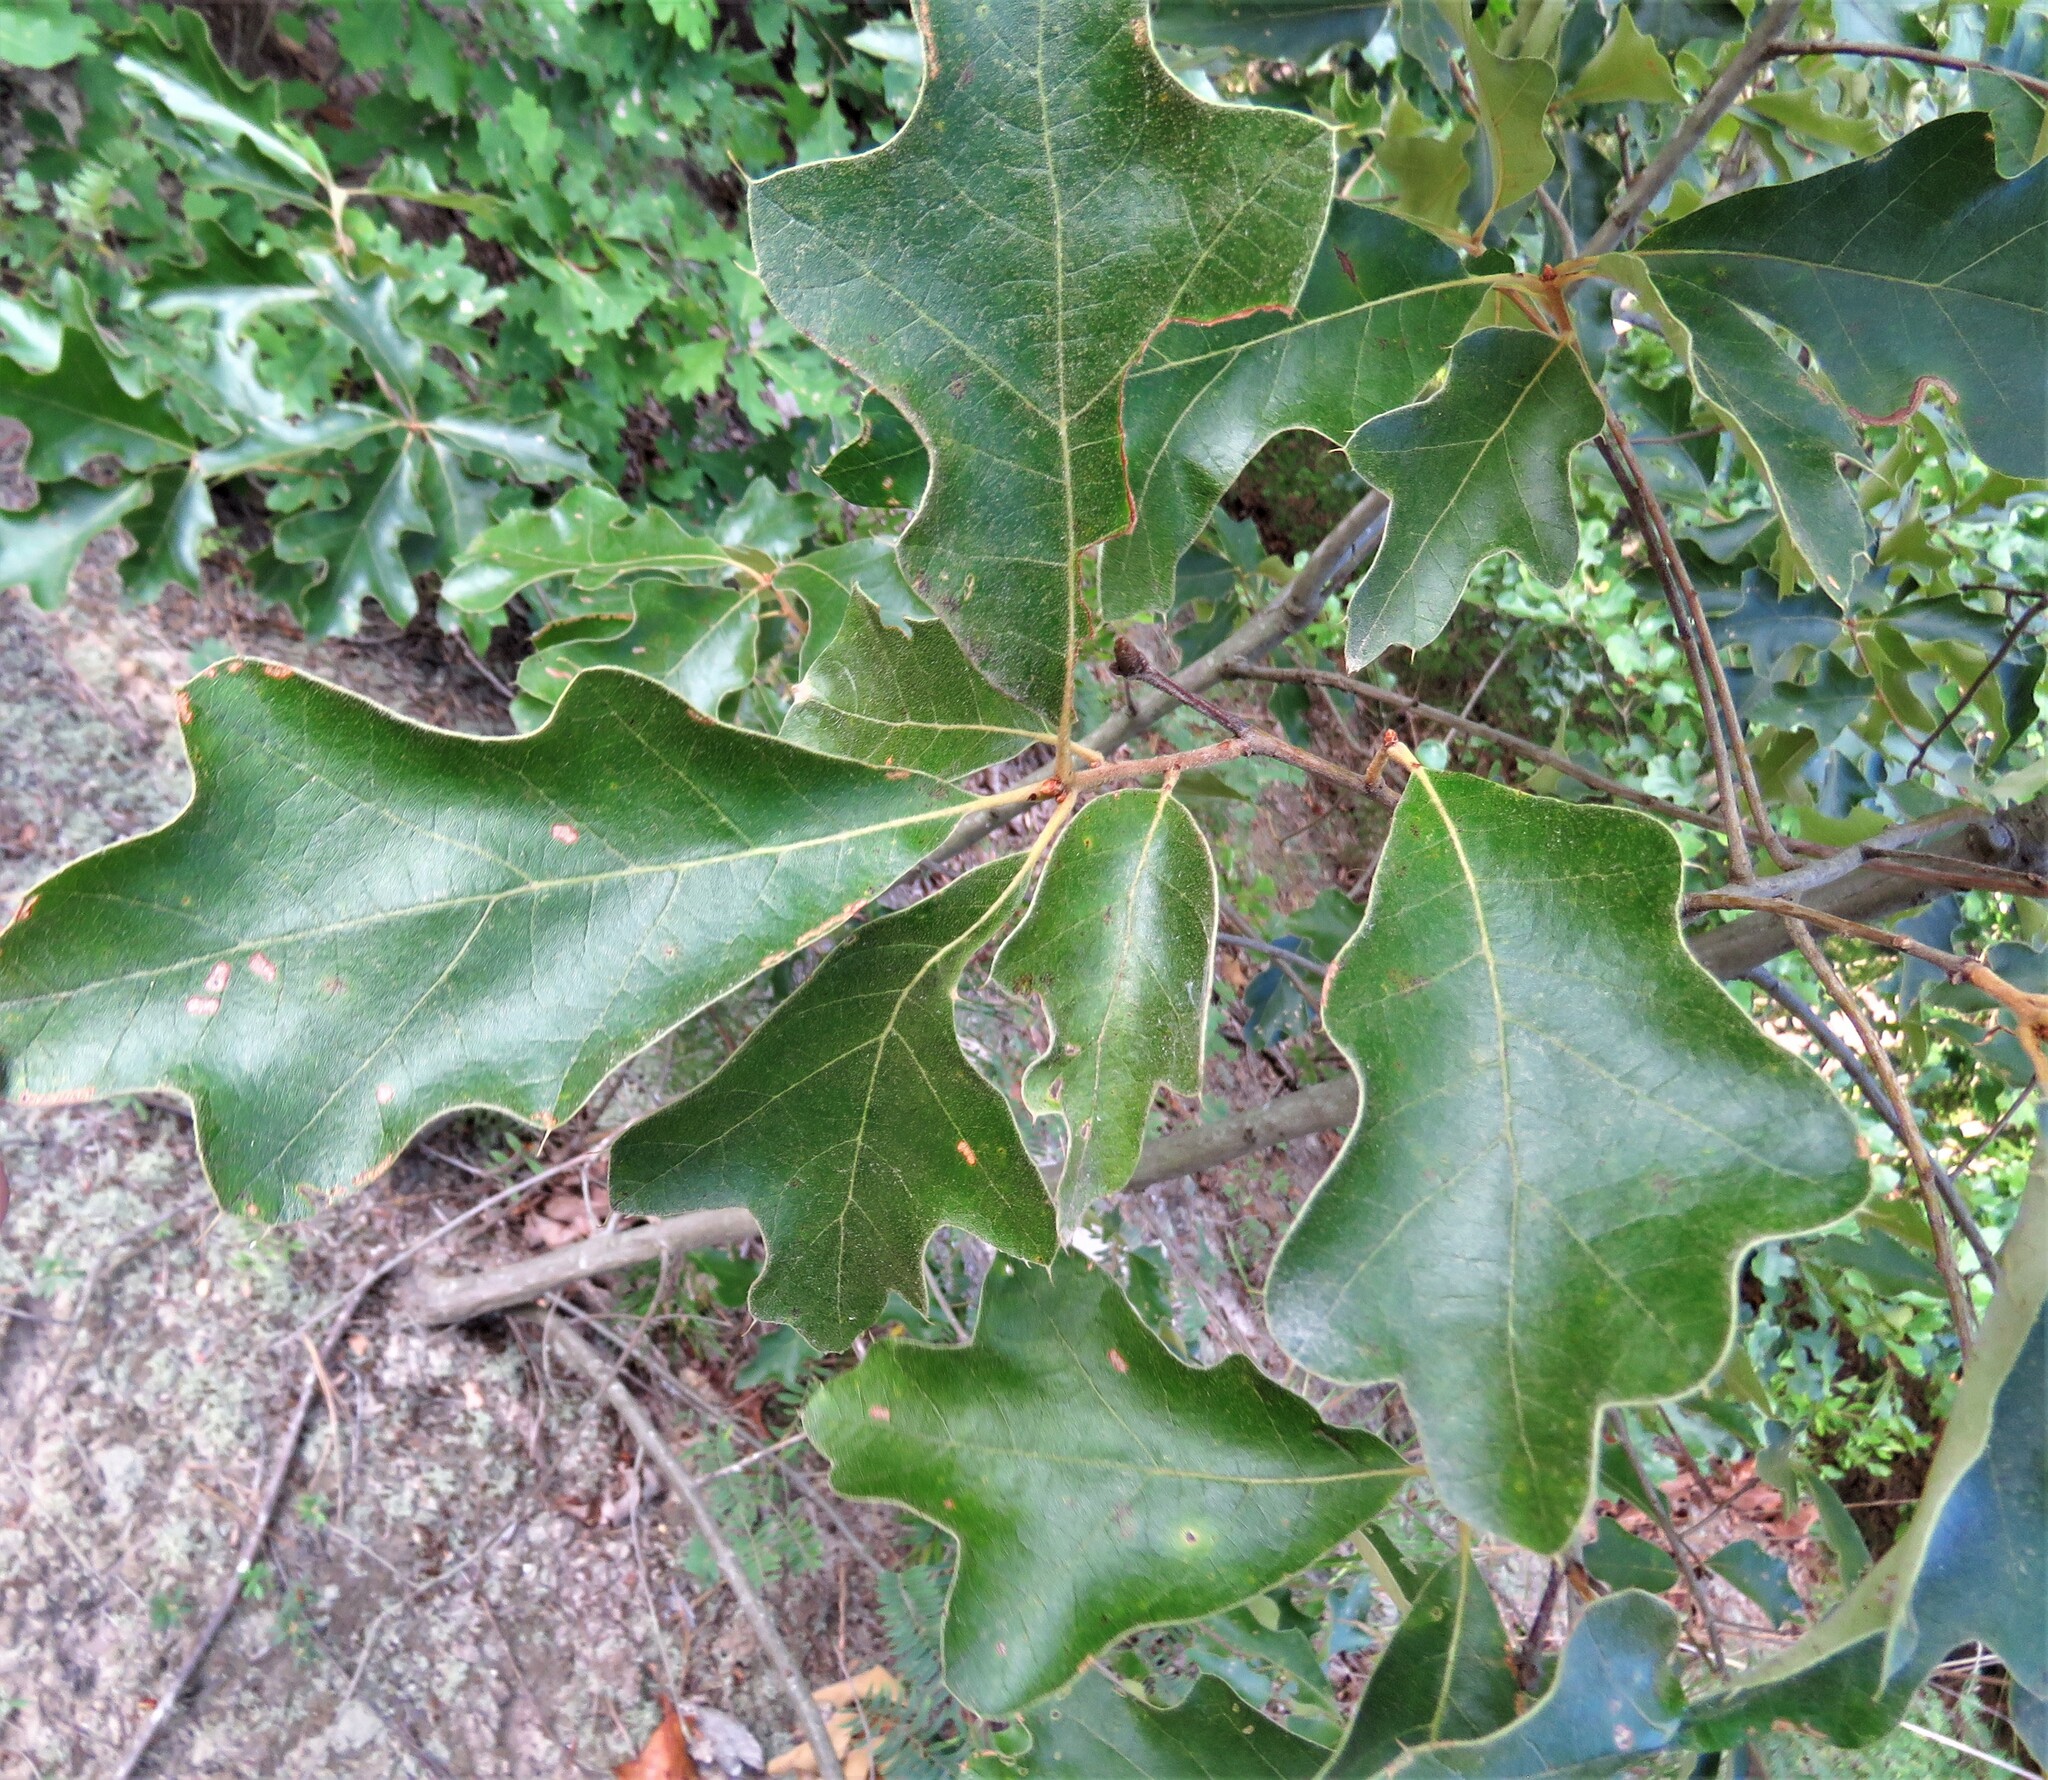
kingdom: Plantae
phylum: Tracheophyta
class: Magnoliopsida
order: Fagales
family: Fagaceae
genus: Quercus
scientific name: Quercus ilicifolia
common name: Bear oak
